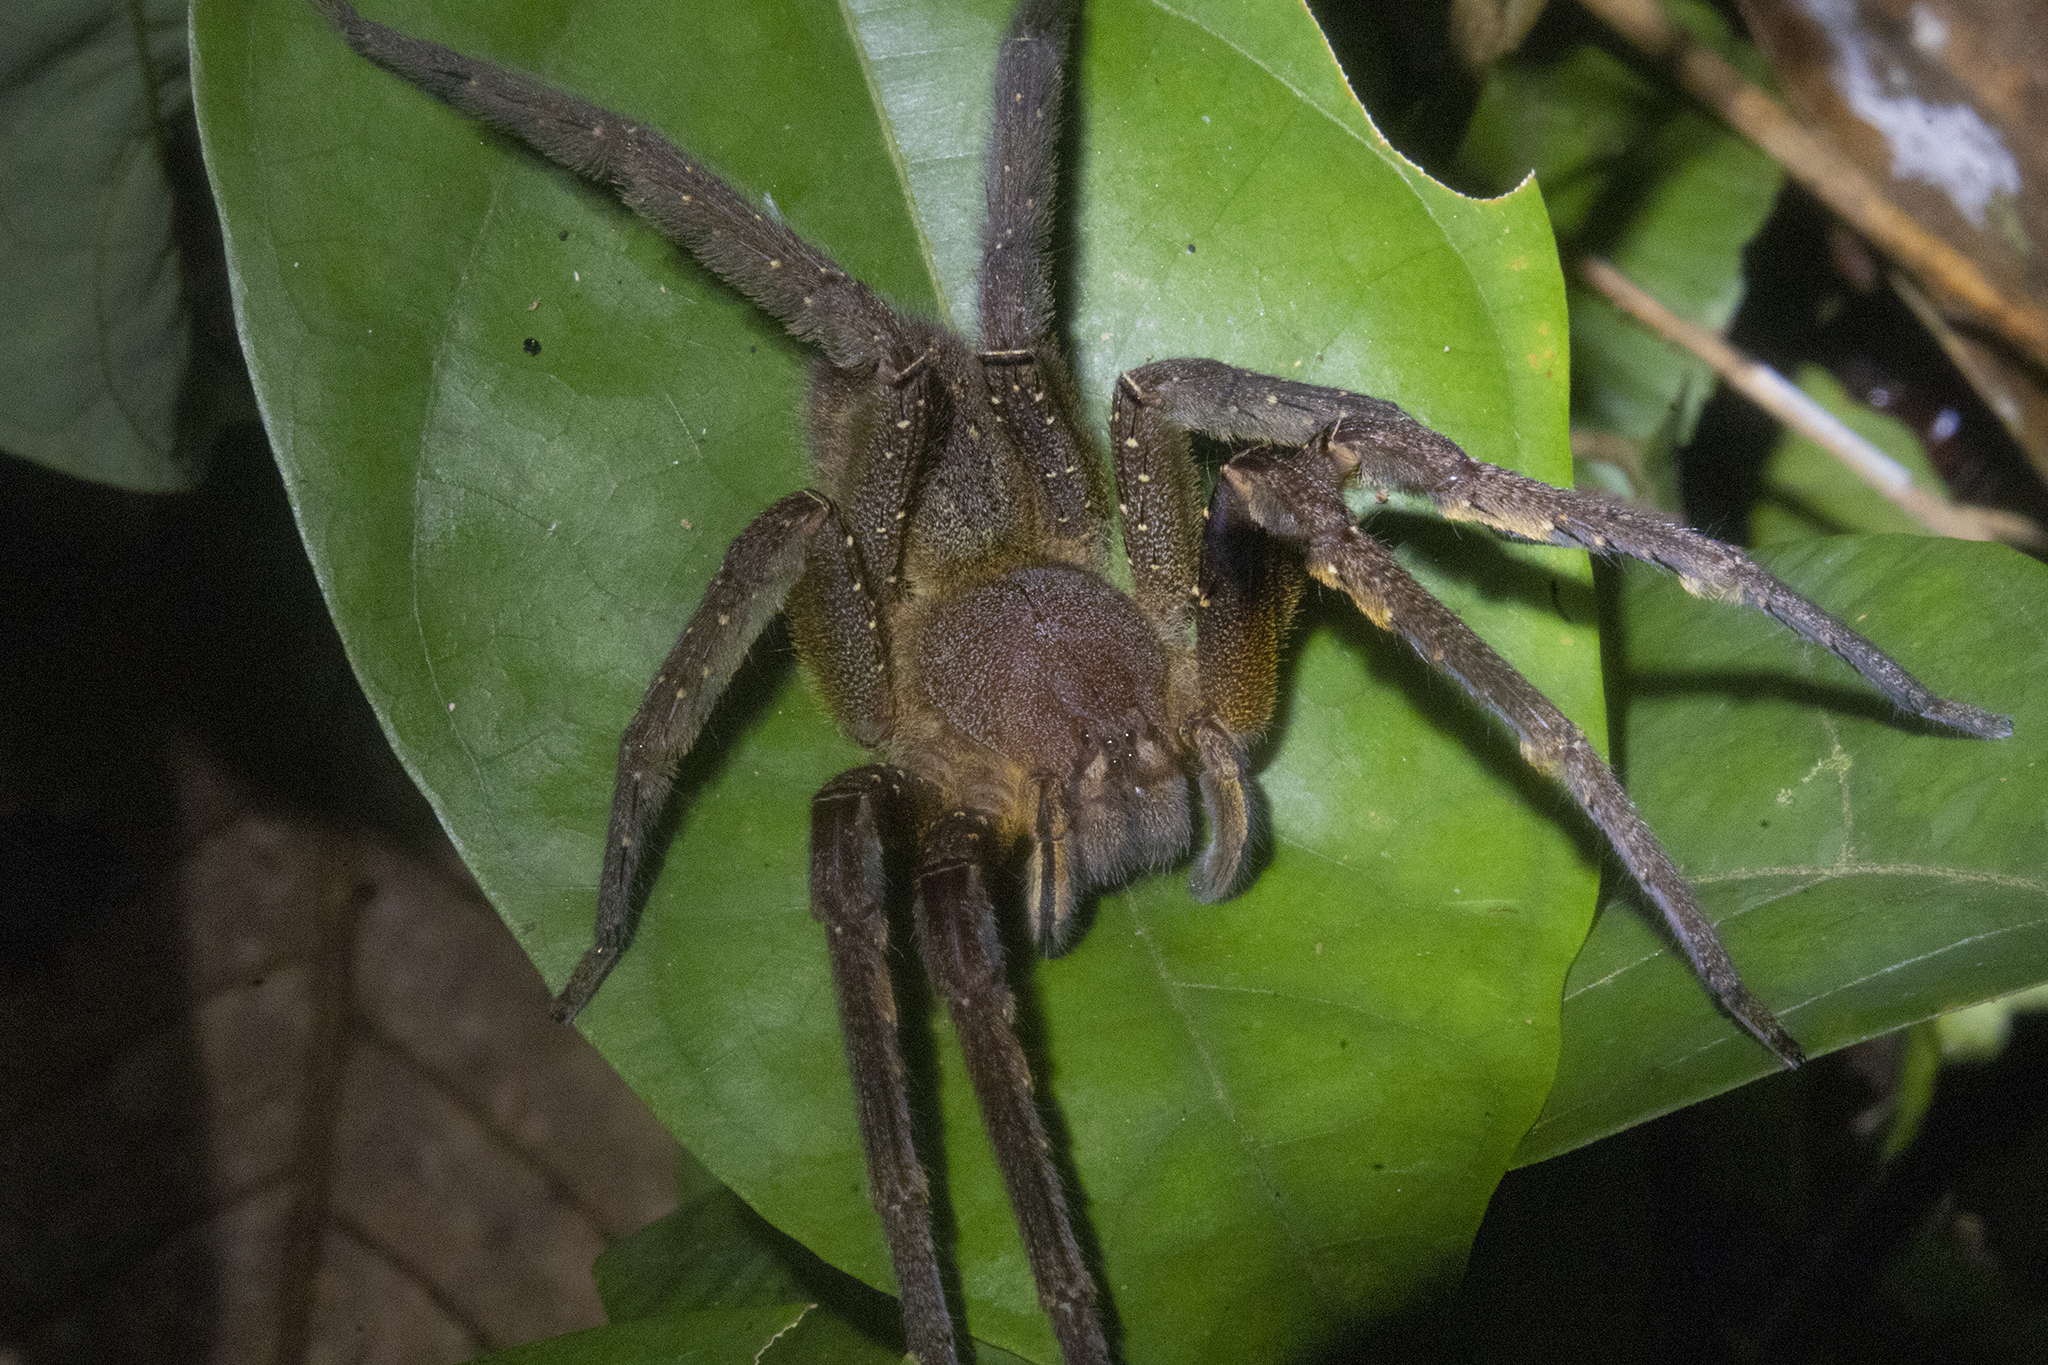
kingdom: Animalia
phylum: Arthropoda
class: Arachnida
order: Araneae
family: Ctenidae
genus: Phoneutria
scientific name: Phoneutria fera
